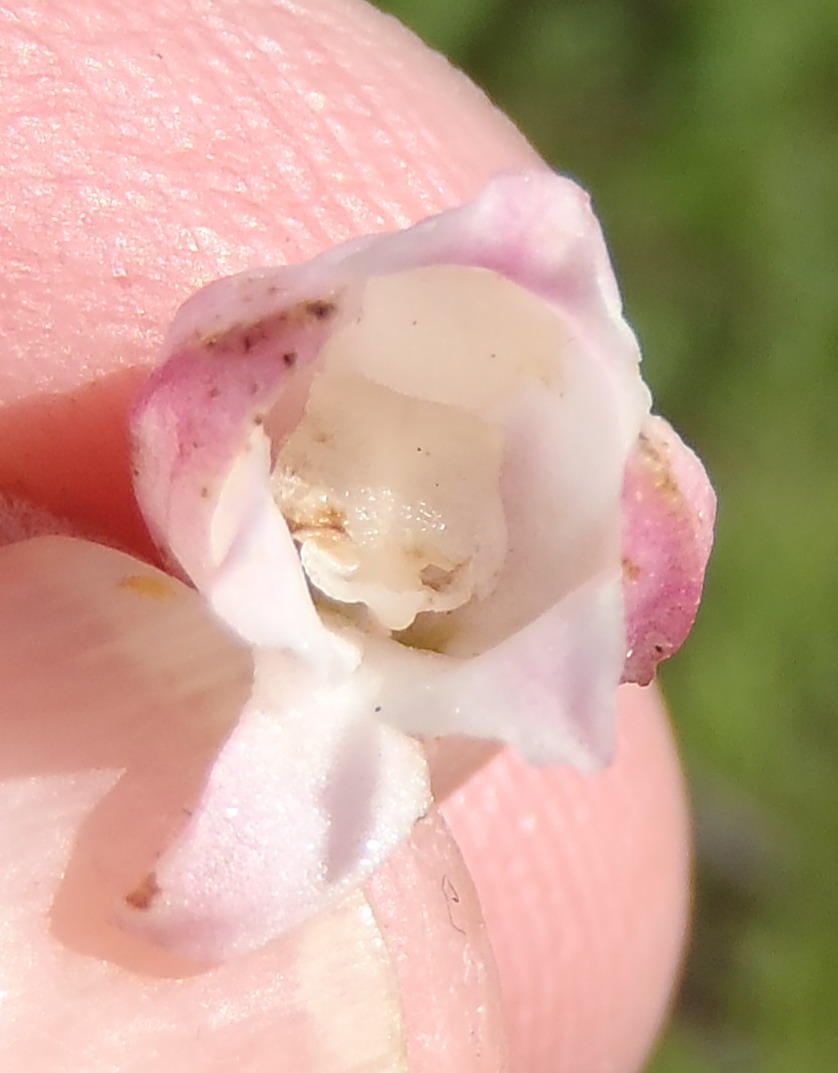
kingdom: Plantae
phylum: Tracheophyta
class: Liliopsida
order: Asparagales
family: Orchidaceae
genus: Satyrium
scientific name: Satyrium acuminatum
